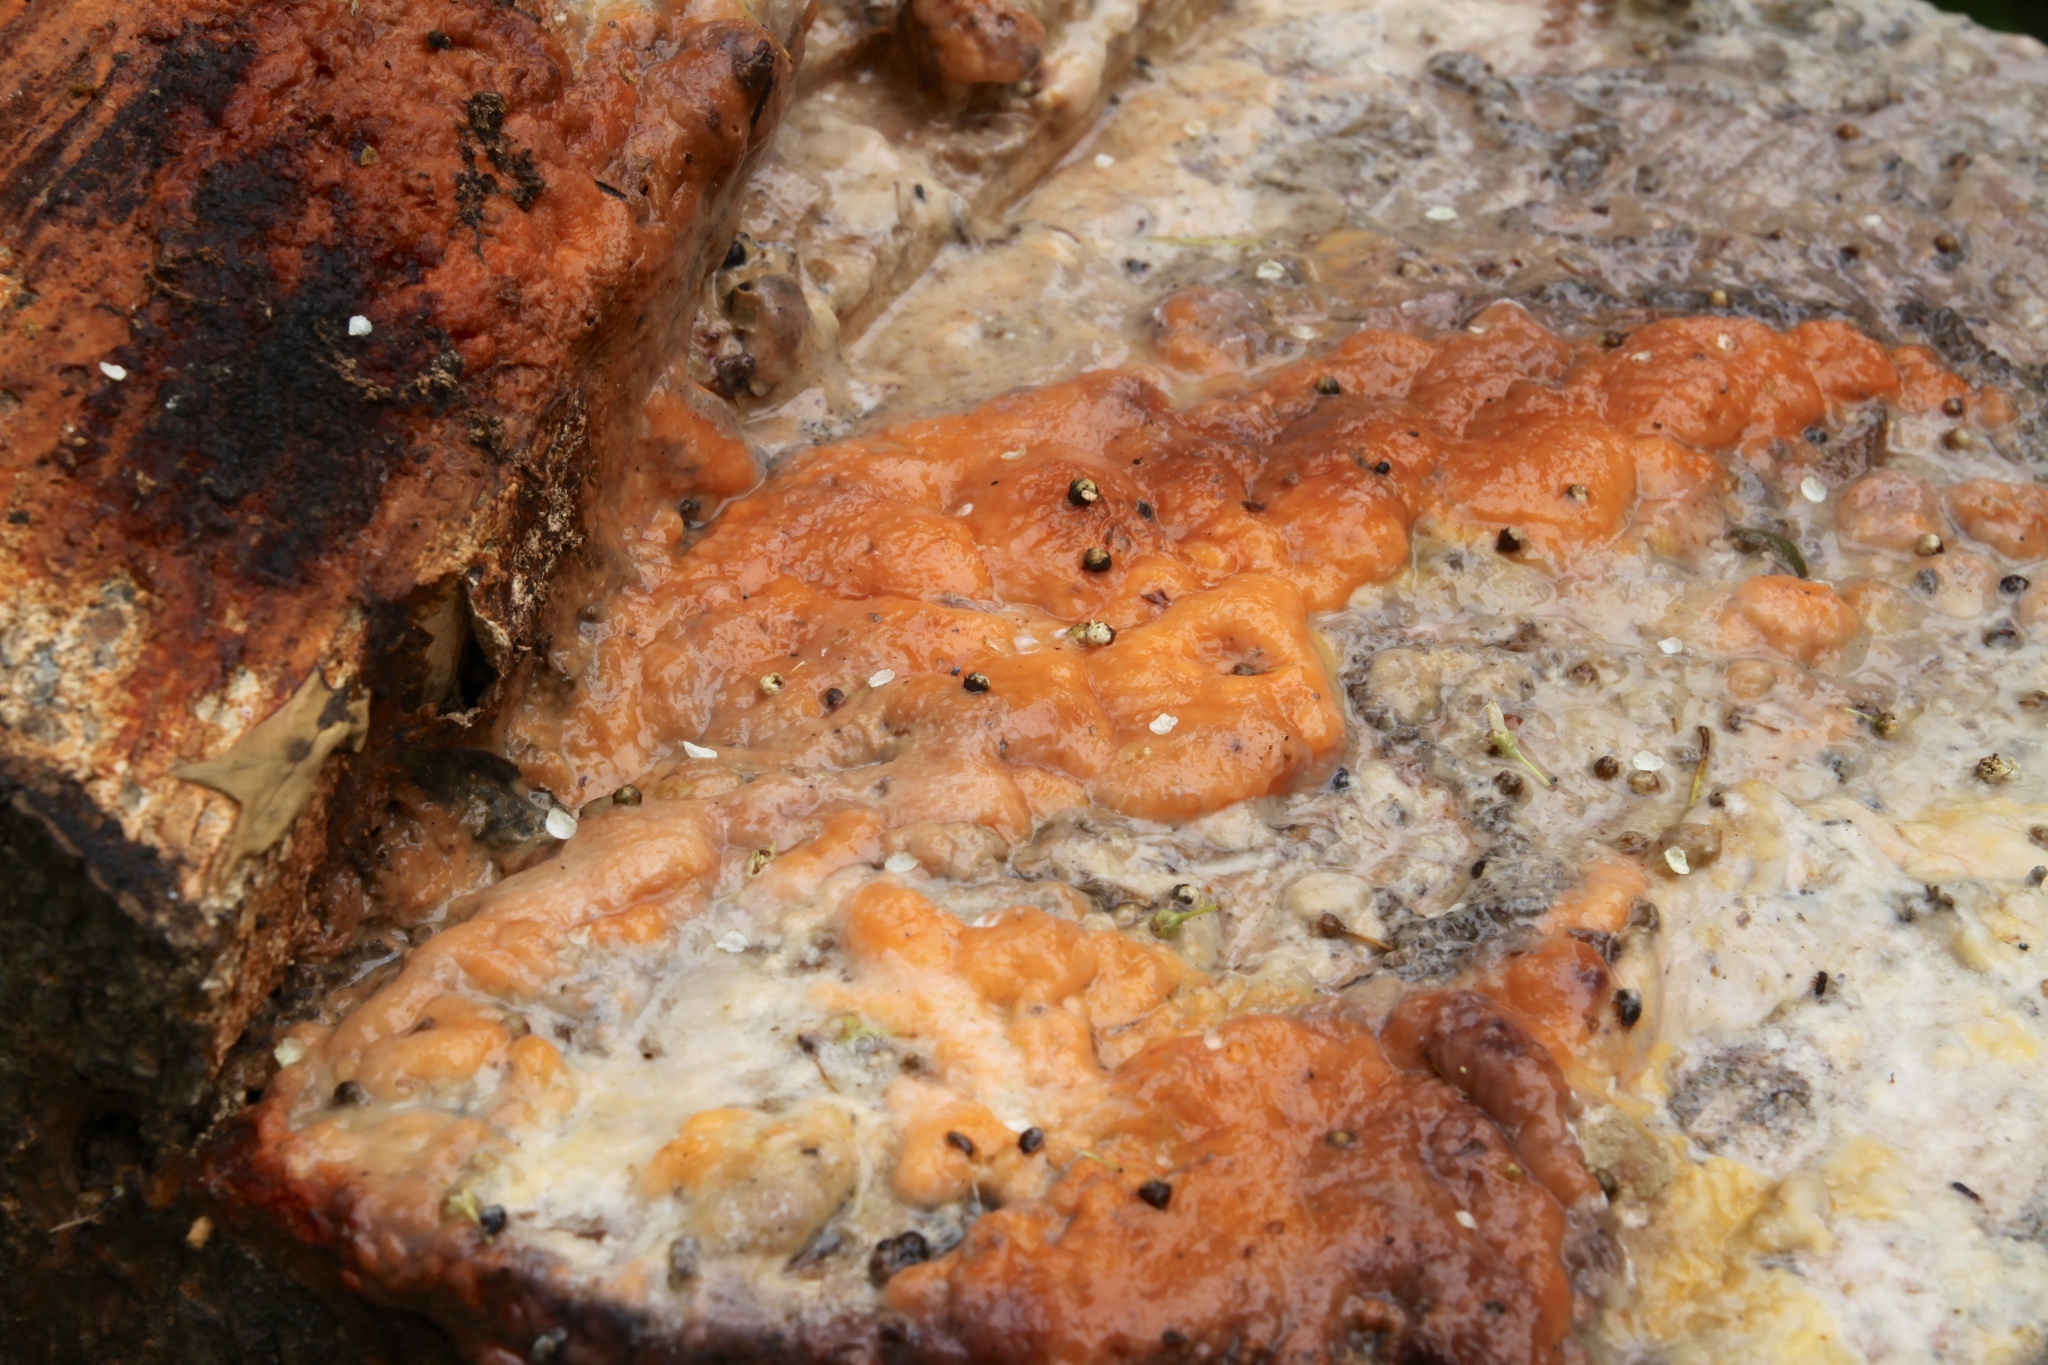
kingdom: Fungi
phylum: Ascomycota
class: Sordariomycetes
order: Hypocreales
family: Nectriaceae
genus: Fusicolla
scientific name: Fusicolla merismoides
